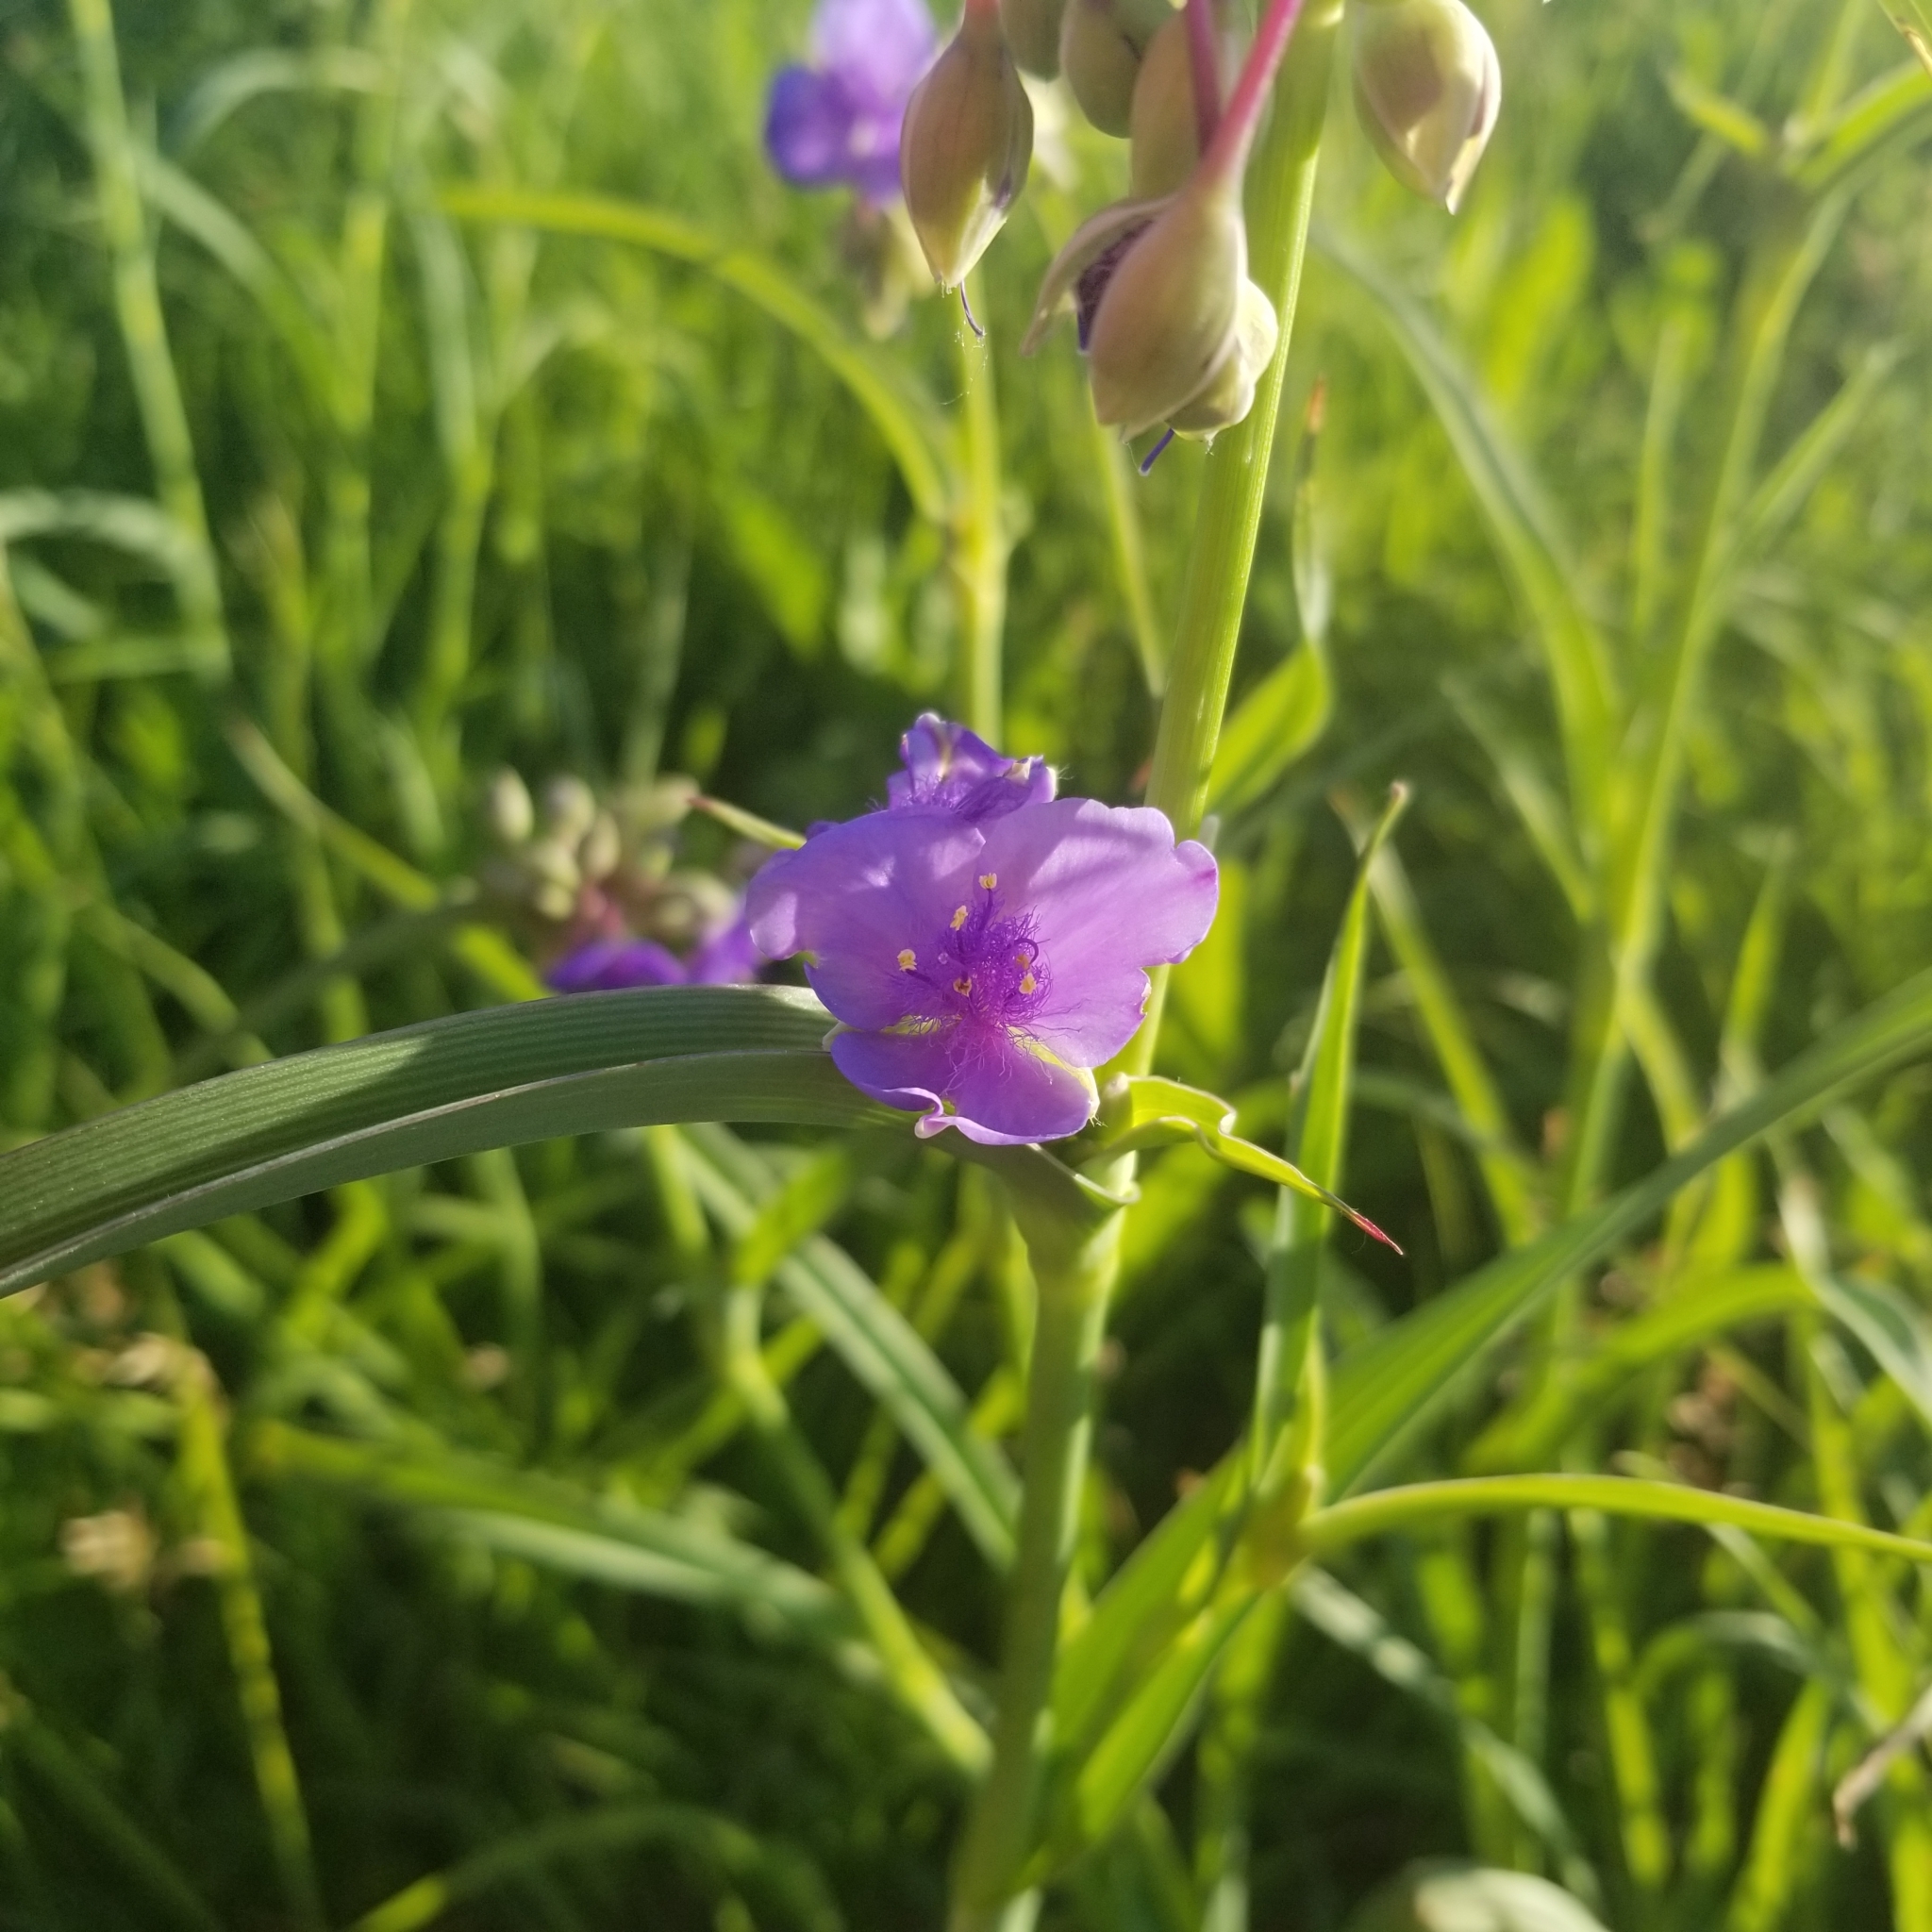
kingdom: Plantae
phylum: Tracheophyta
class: Liliopsida
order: Commelinales
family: Commelinaceae
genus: Tradescantia
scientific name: Tradescantia ohiensis
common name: Ohio spiderwort
